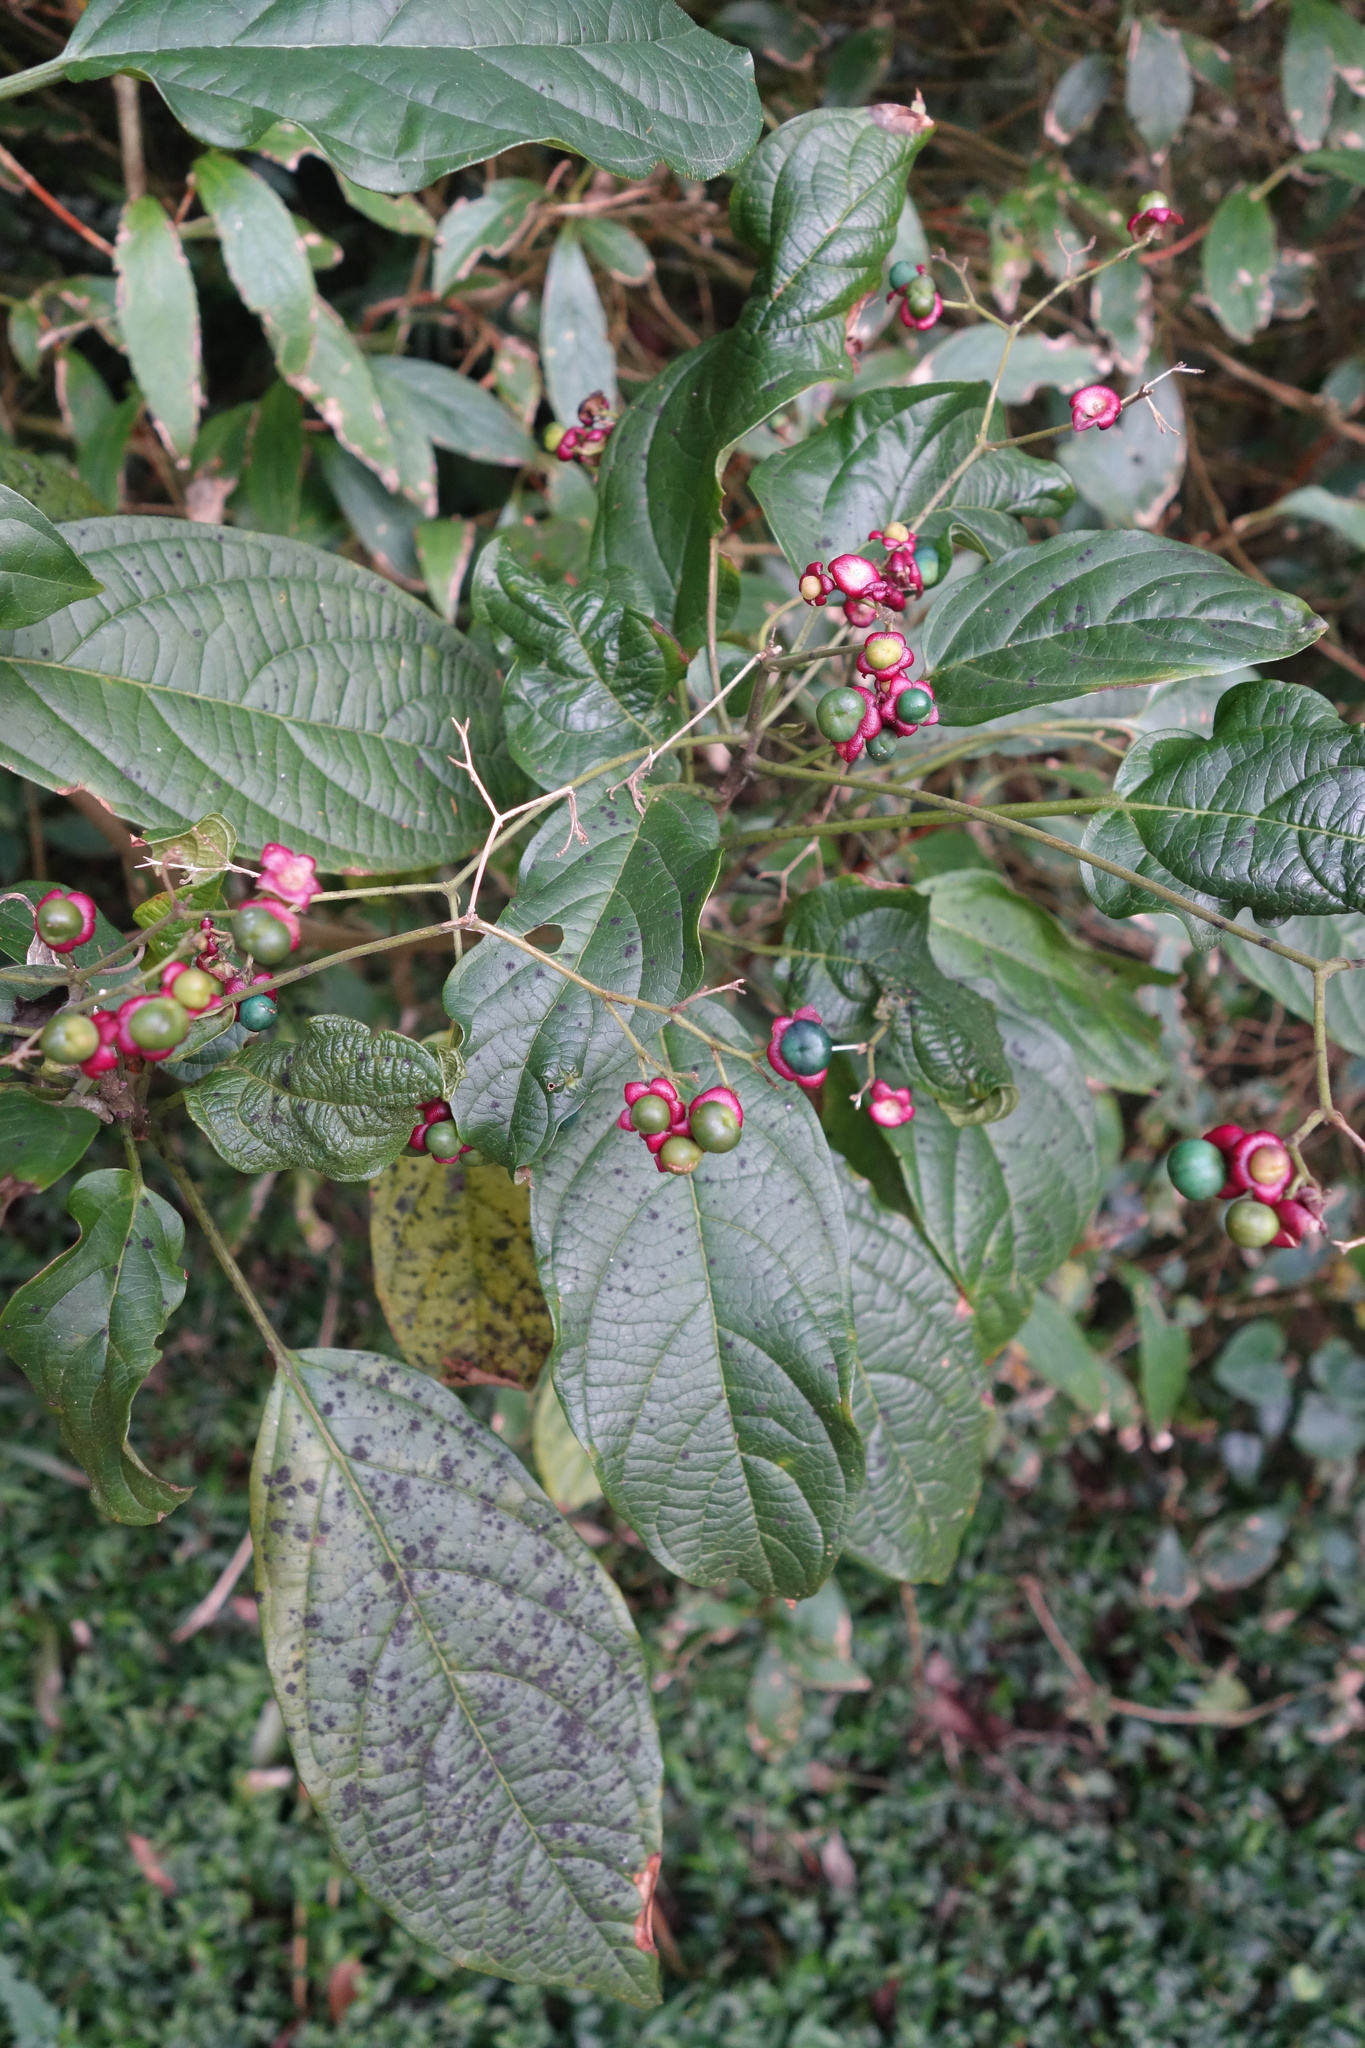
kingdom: Plantae
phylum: Tracheophyta
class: Magnoliopsida
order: Lamiales
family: Lamiaceae
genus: Clerodendrum
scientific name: Clerodendrum cyrtophyllum
